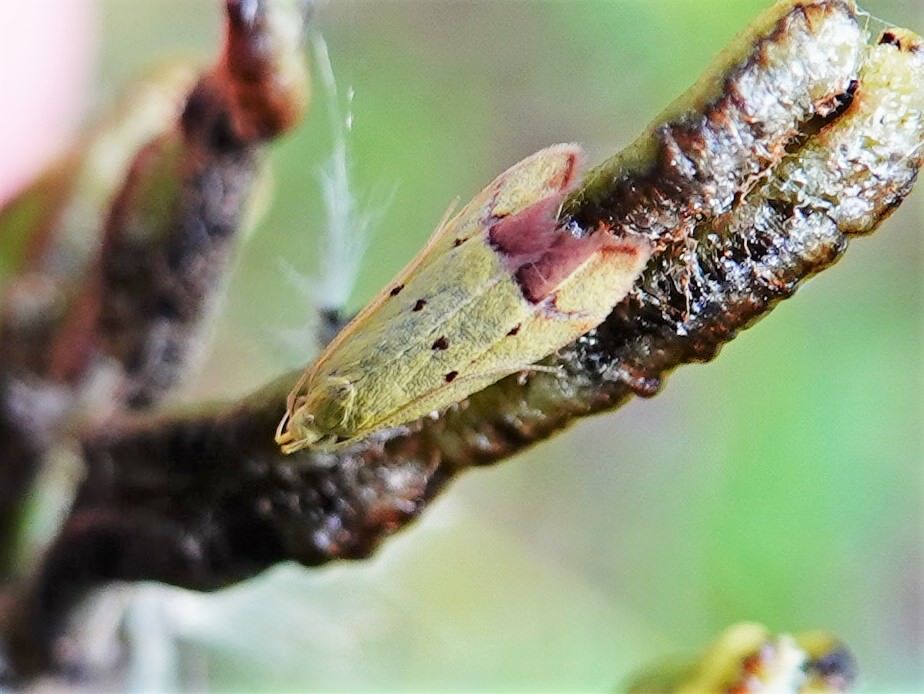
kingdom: Animalia
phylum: Arthropoda
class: Insecta
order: Lepidoptera
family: Oecophoridae
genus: Gymnobathra
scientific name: Gymnobathra flavidella
